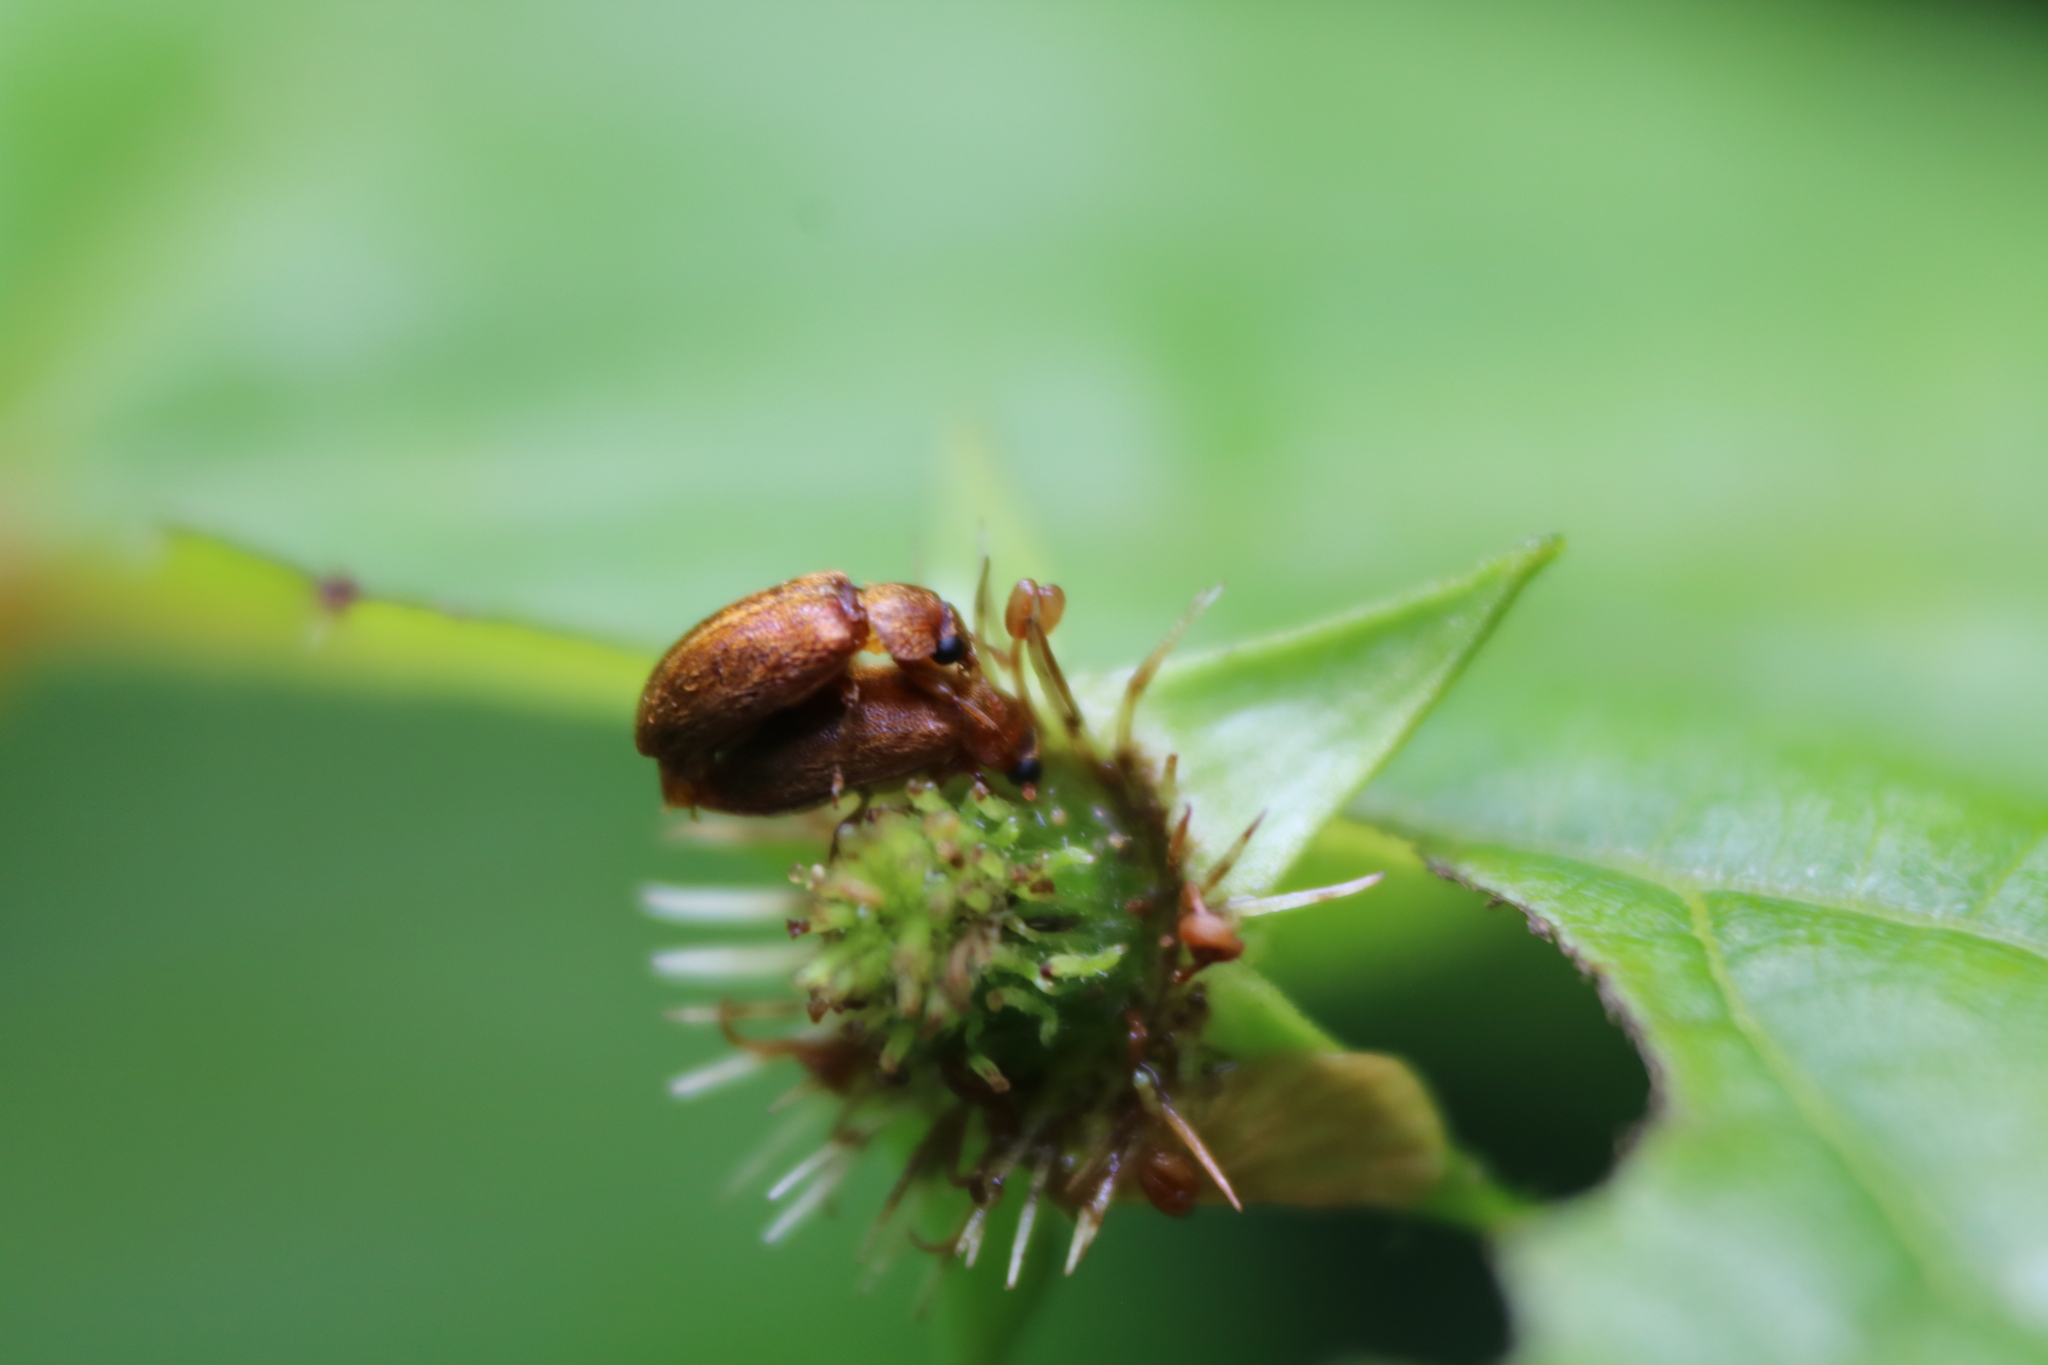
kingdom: Animalia
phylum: Arthropoda
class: Insecta
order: Coleoptera
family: Byturidae
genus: Byturus
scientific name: Byturus unicolor
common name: Raspberry fruitworm beetle
